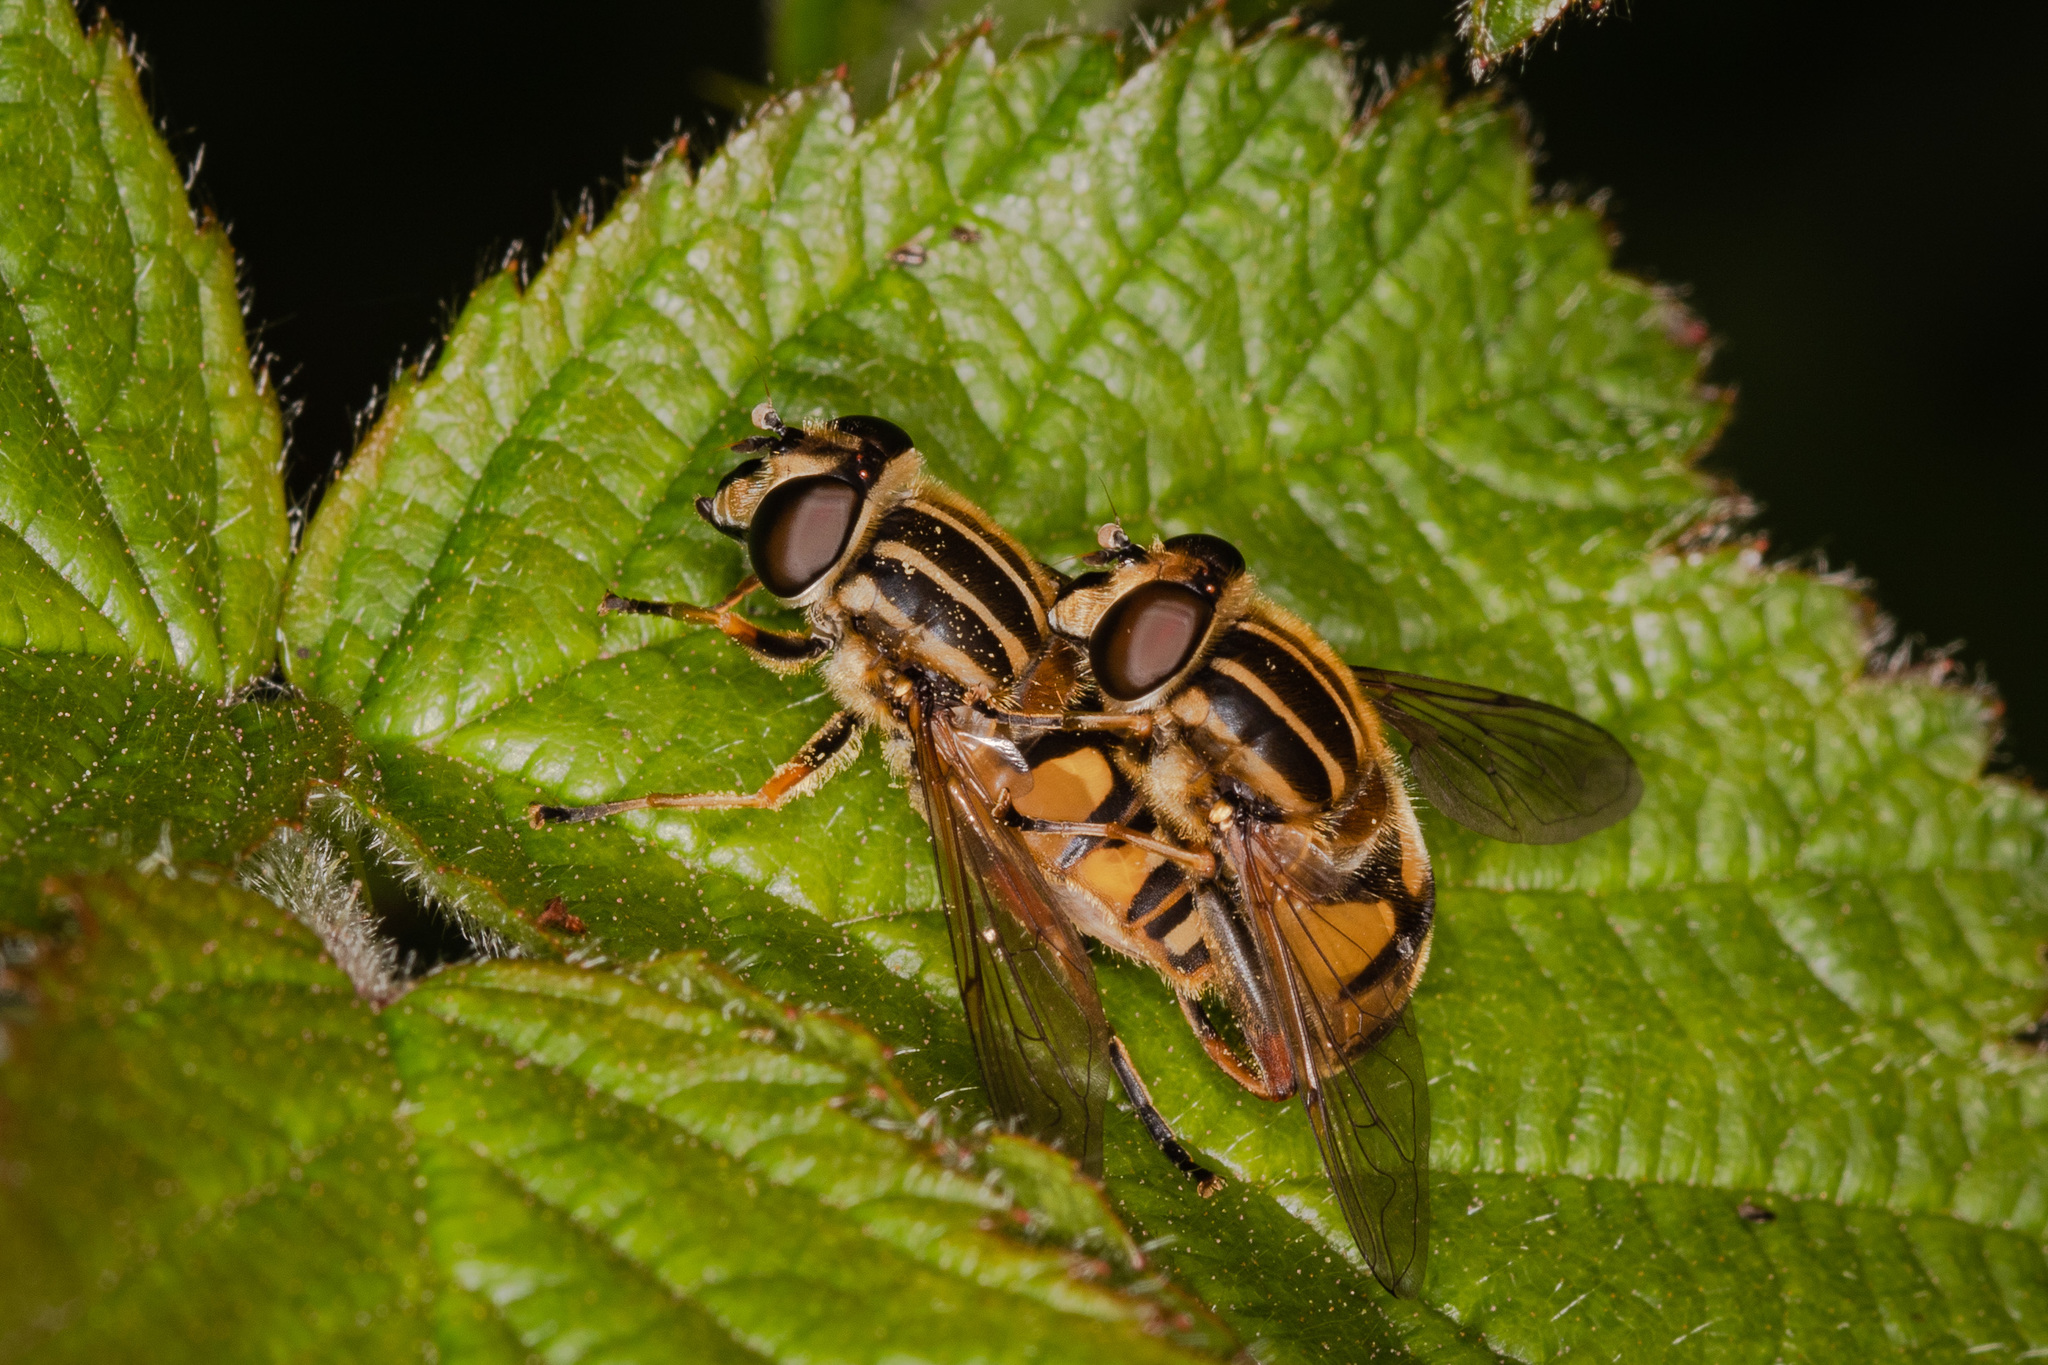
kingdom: Animalia
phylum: Arthropoda
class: Insecta
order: Diptera
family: Syrphidae
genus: Helophilus
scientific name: Helophilus pendulus
